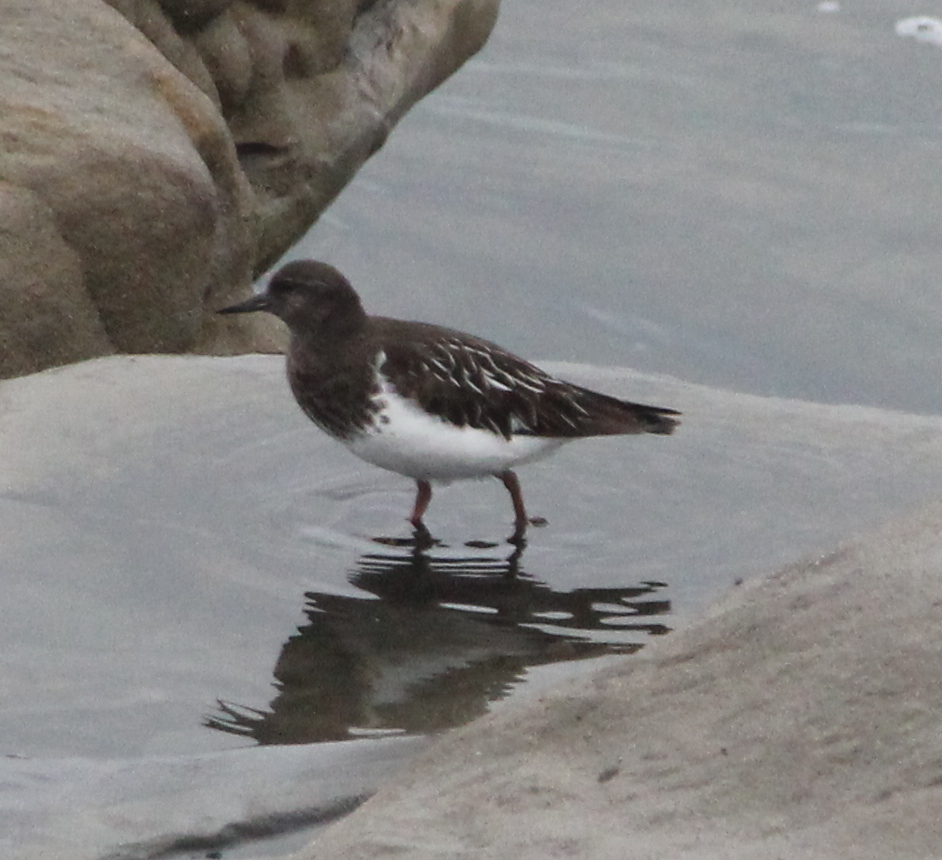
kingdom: Animalia
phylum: Chordata
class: Aves
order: Charadriiformes
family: Scolopacidae
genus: Arenaria
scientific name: Arenaria melanocephala
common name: Black turnstone
